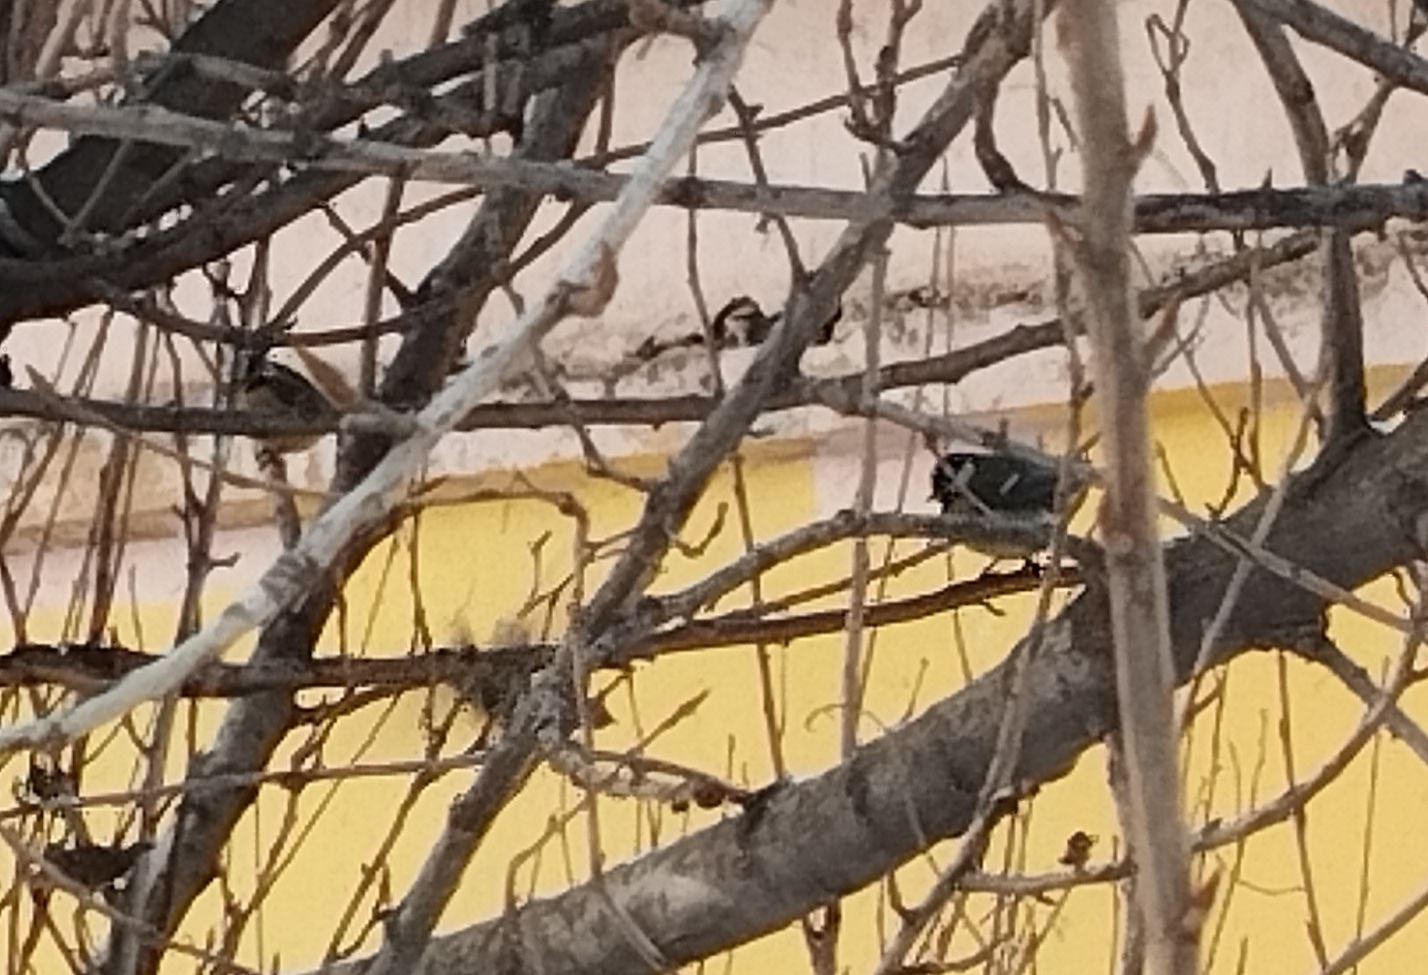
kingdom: Animalia
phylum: Chordata
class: Aves
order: Passeriformes
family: Paridae
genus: Parus
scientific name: Parus major
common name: Great tit
